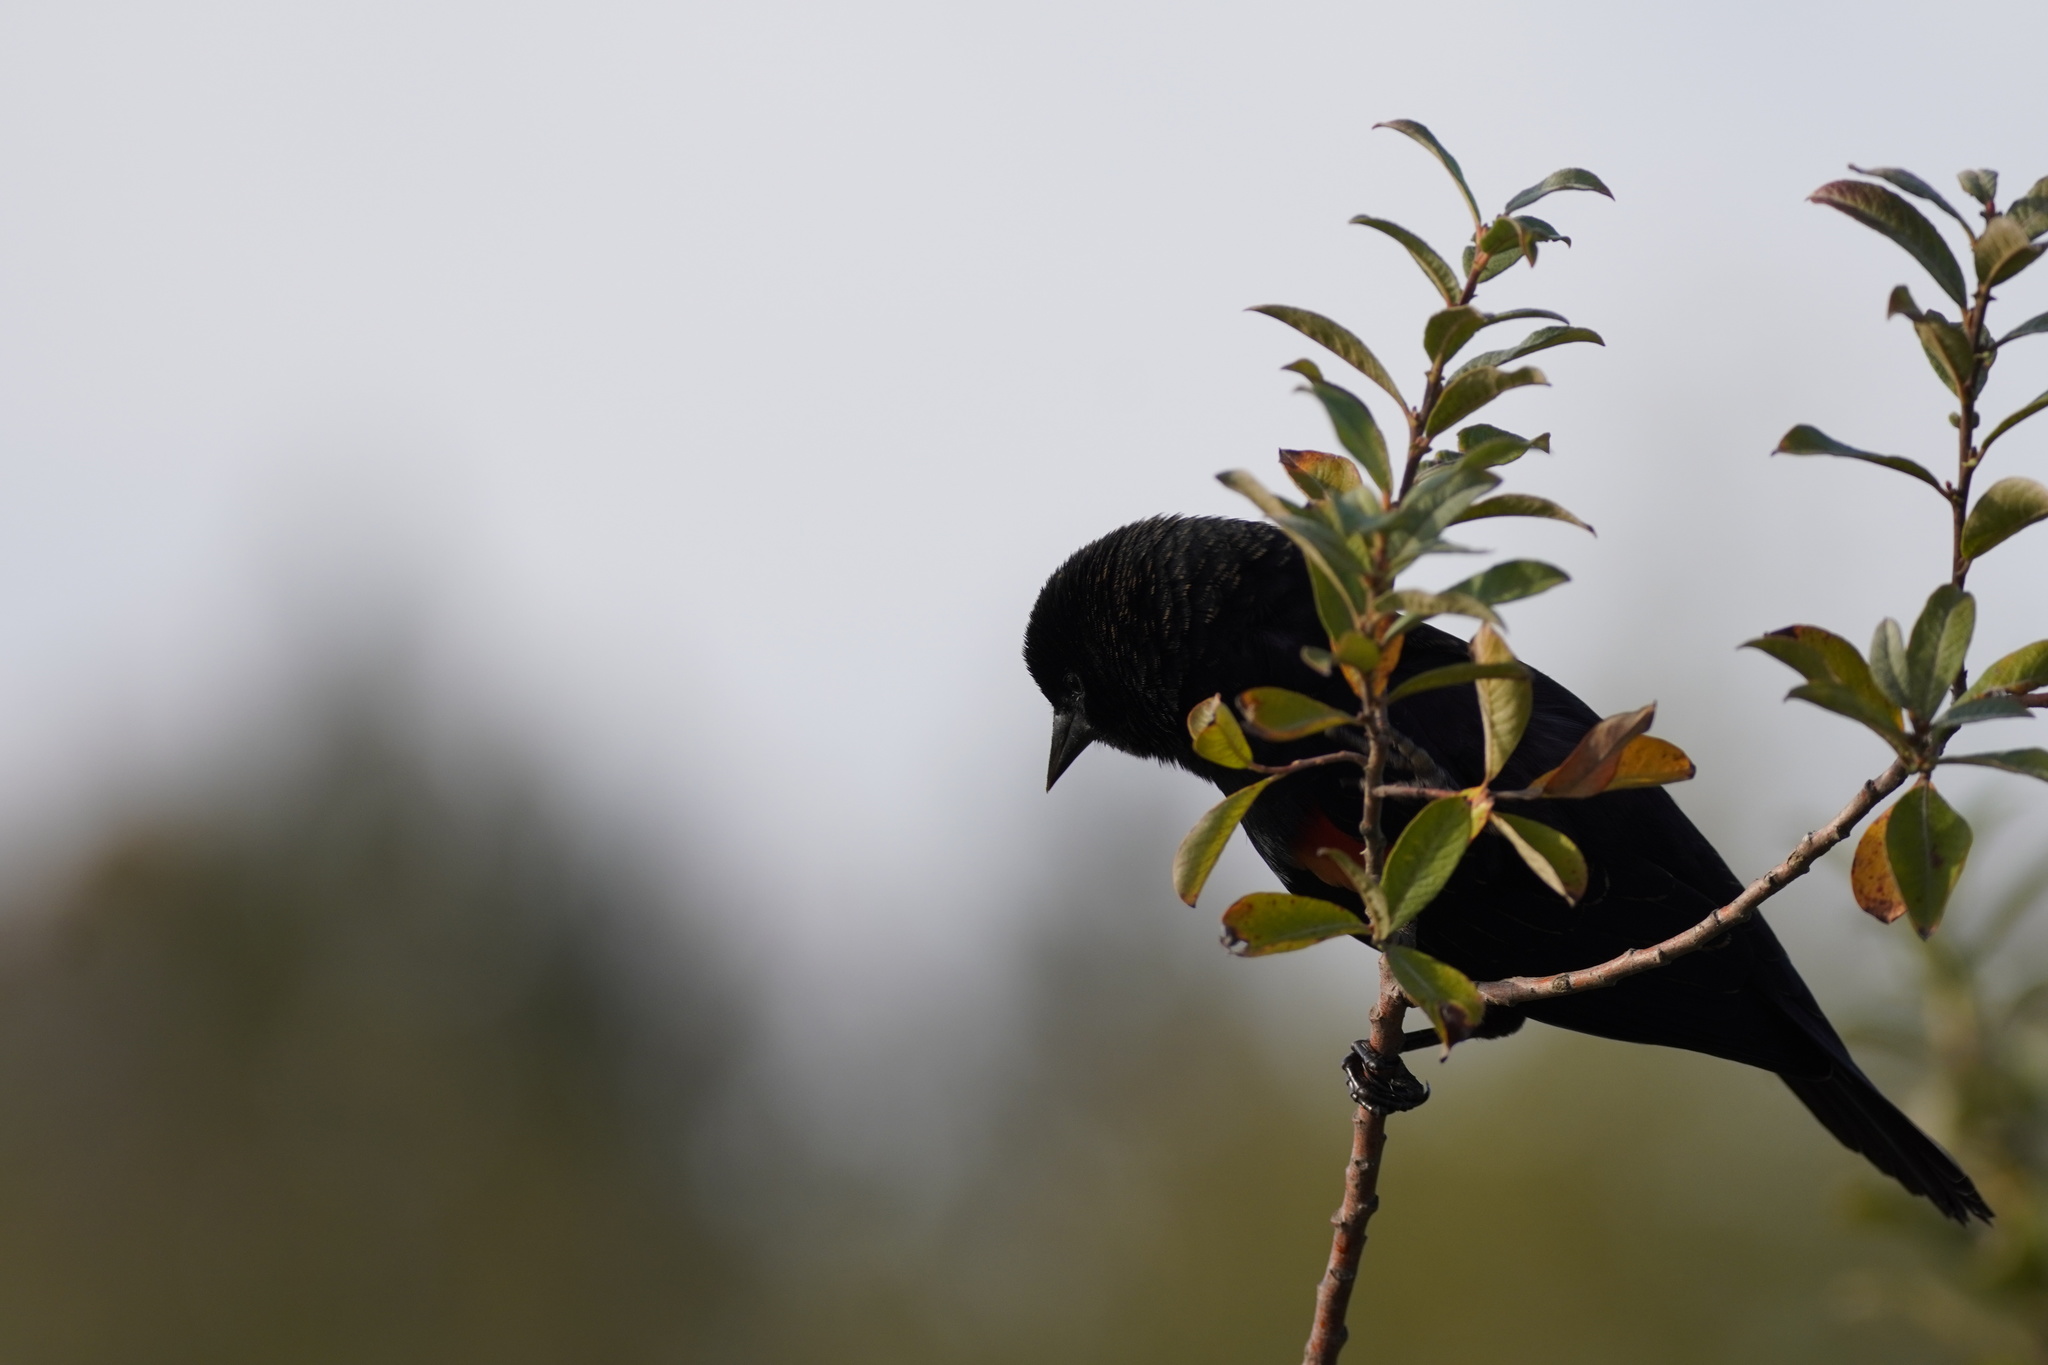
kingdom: Animalia
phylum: Chordata
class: Aves
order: Passeriformes
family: Icteridae
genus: Agelaius
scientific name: Agelaius phoeniceus
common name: Red-winged blackbird
